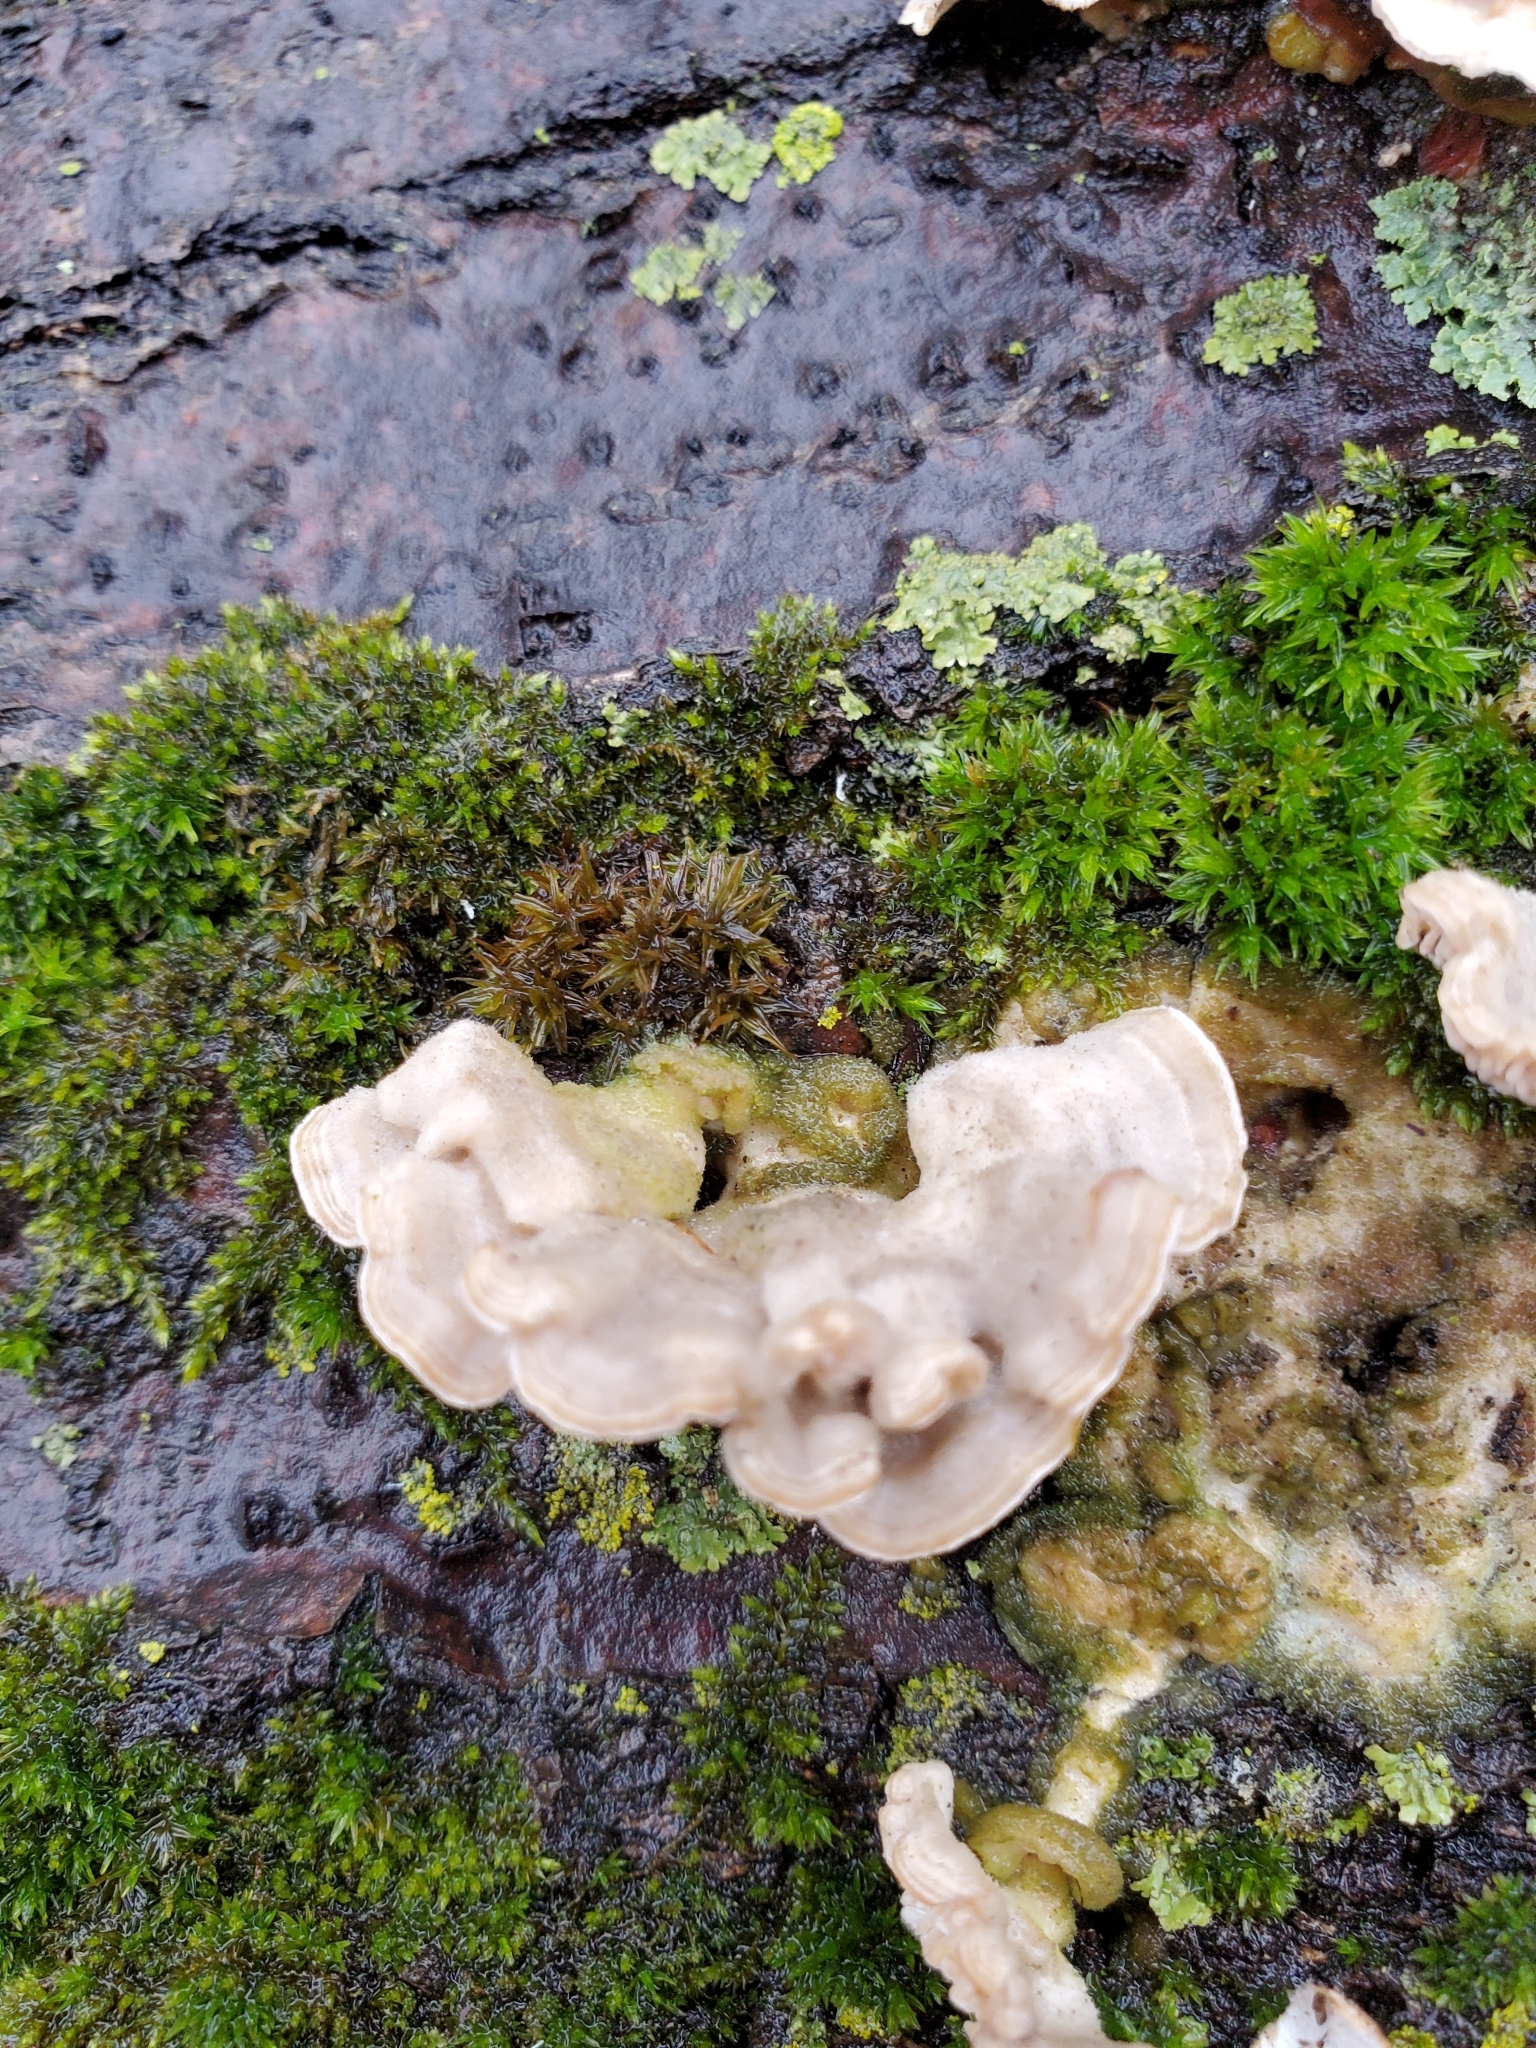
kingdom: Fungi
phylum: Basidiomycota
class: Agaricomycetes
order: Polyporales
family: Meruliaceae
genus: Irpiciporus
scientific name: Irpiciporus pachyodon
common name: Marshmallow polypore
